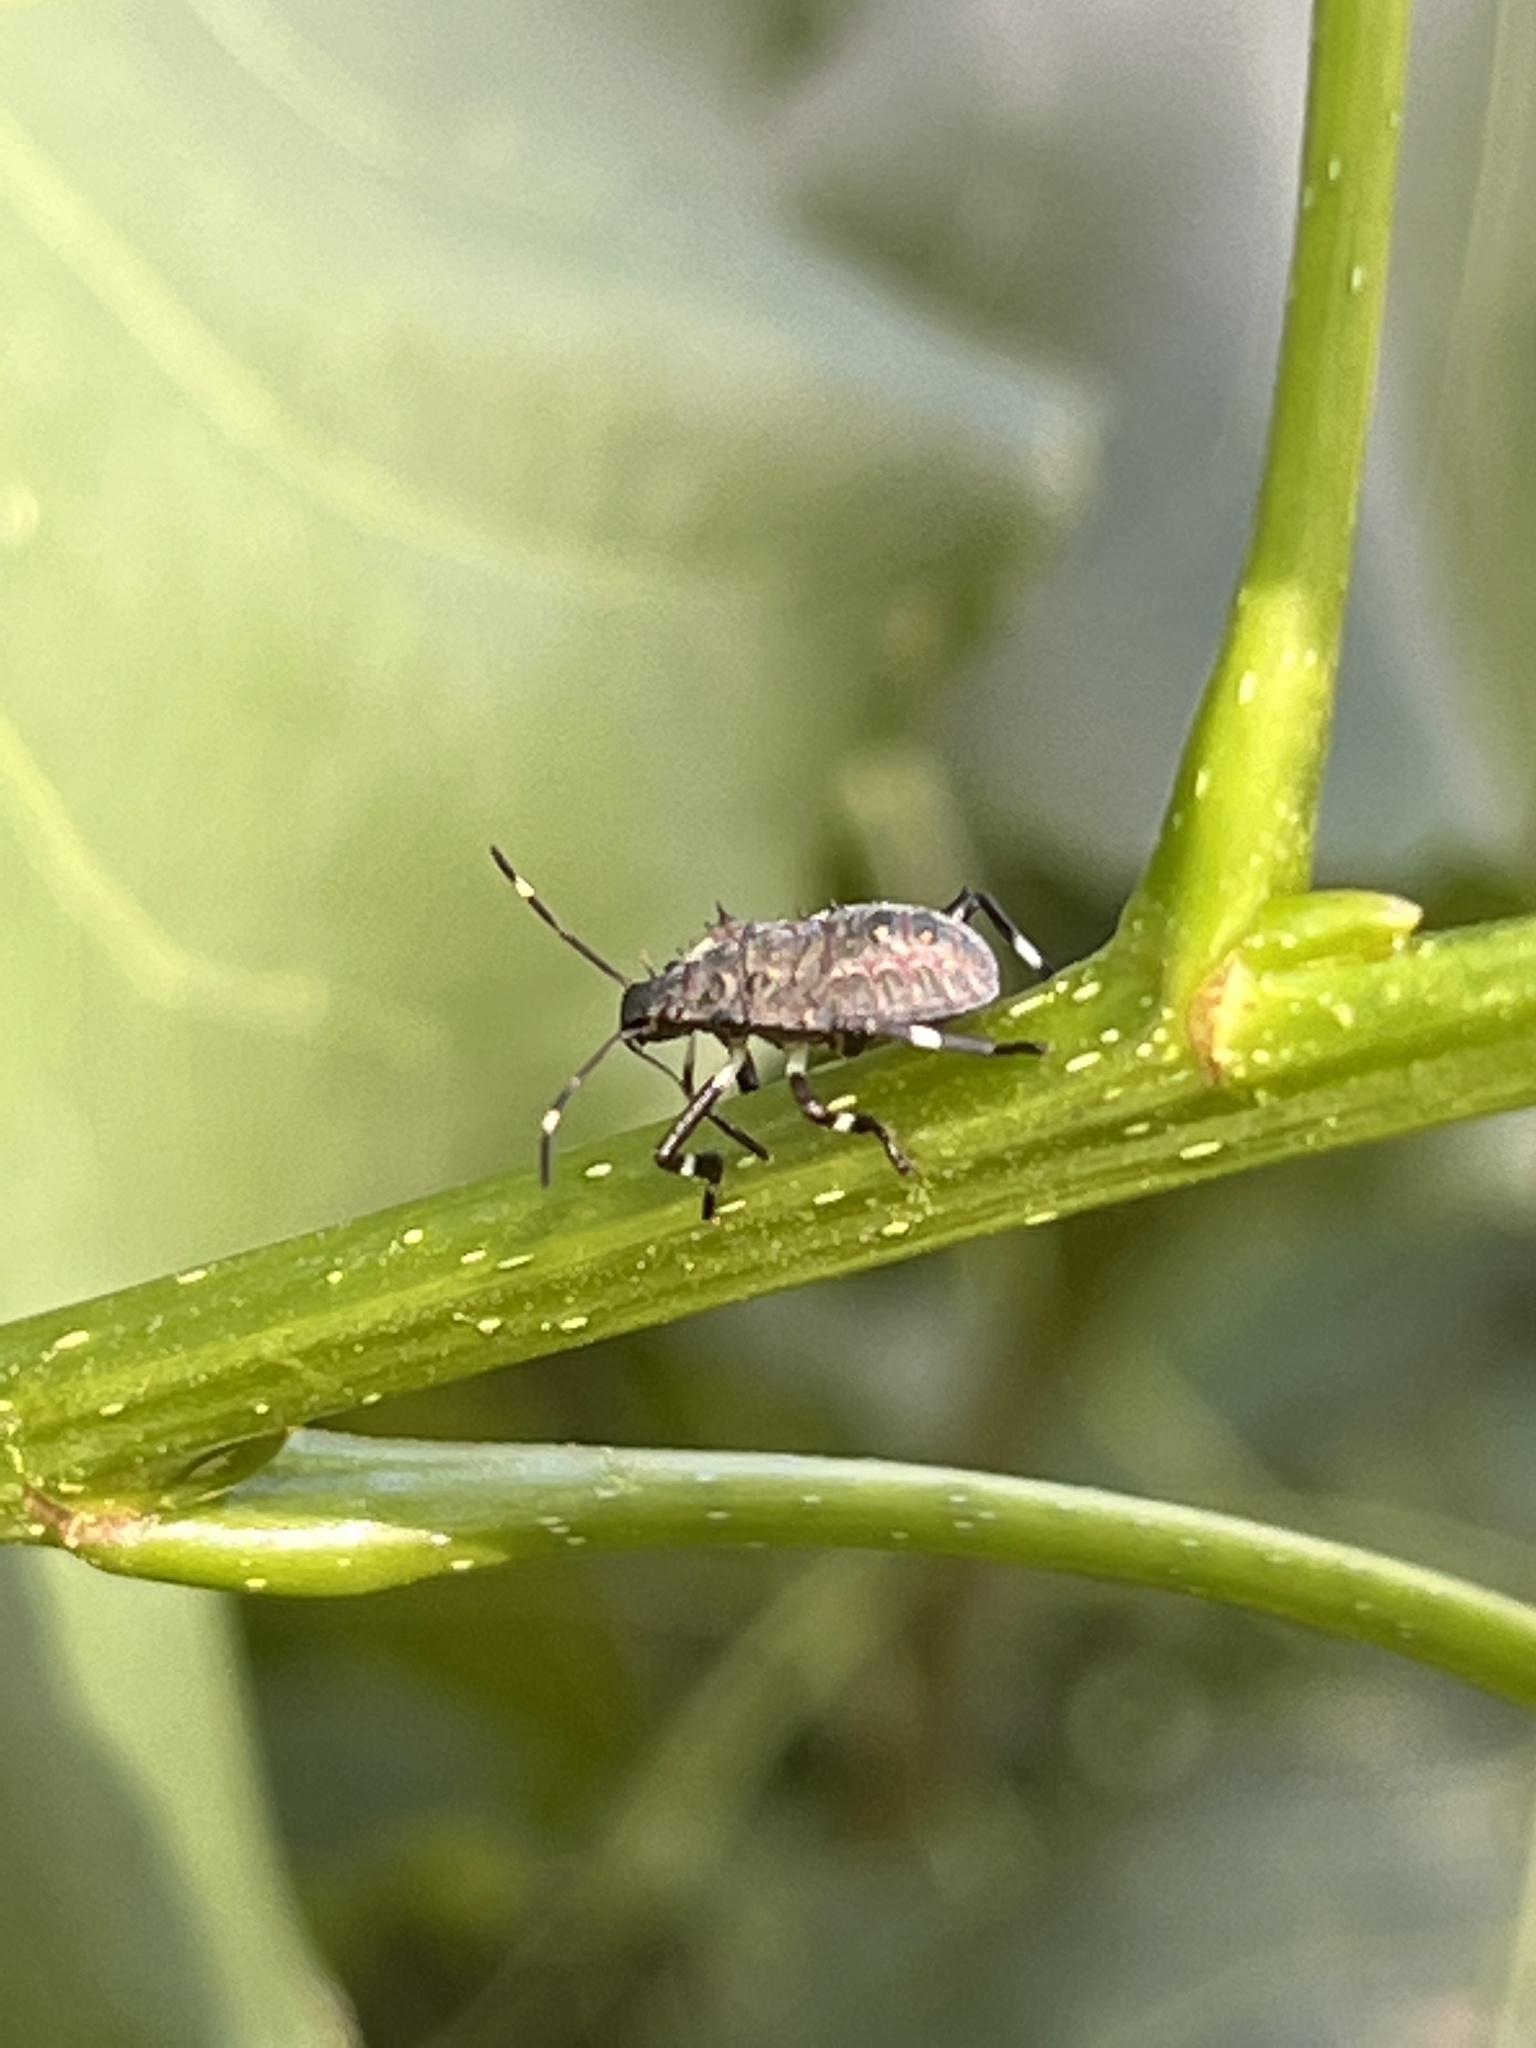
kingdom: Animalia
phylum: Arthropoda
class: Insecta
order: Hemiptera
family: Pentatomidae
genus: Halyomorpha
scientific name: Halyomorpha halys
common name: Brown marmorated stink bug
